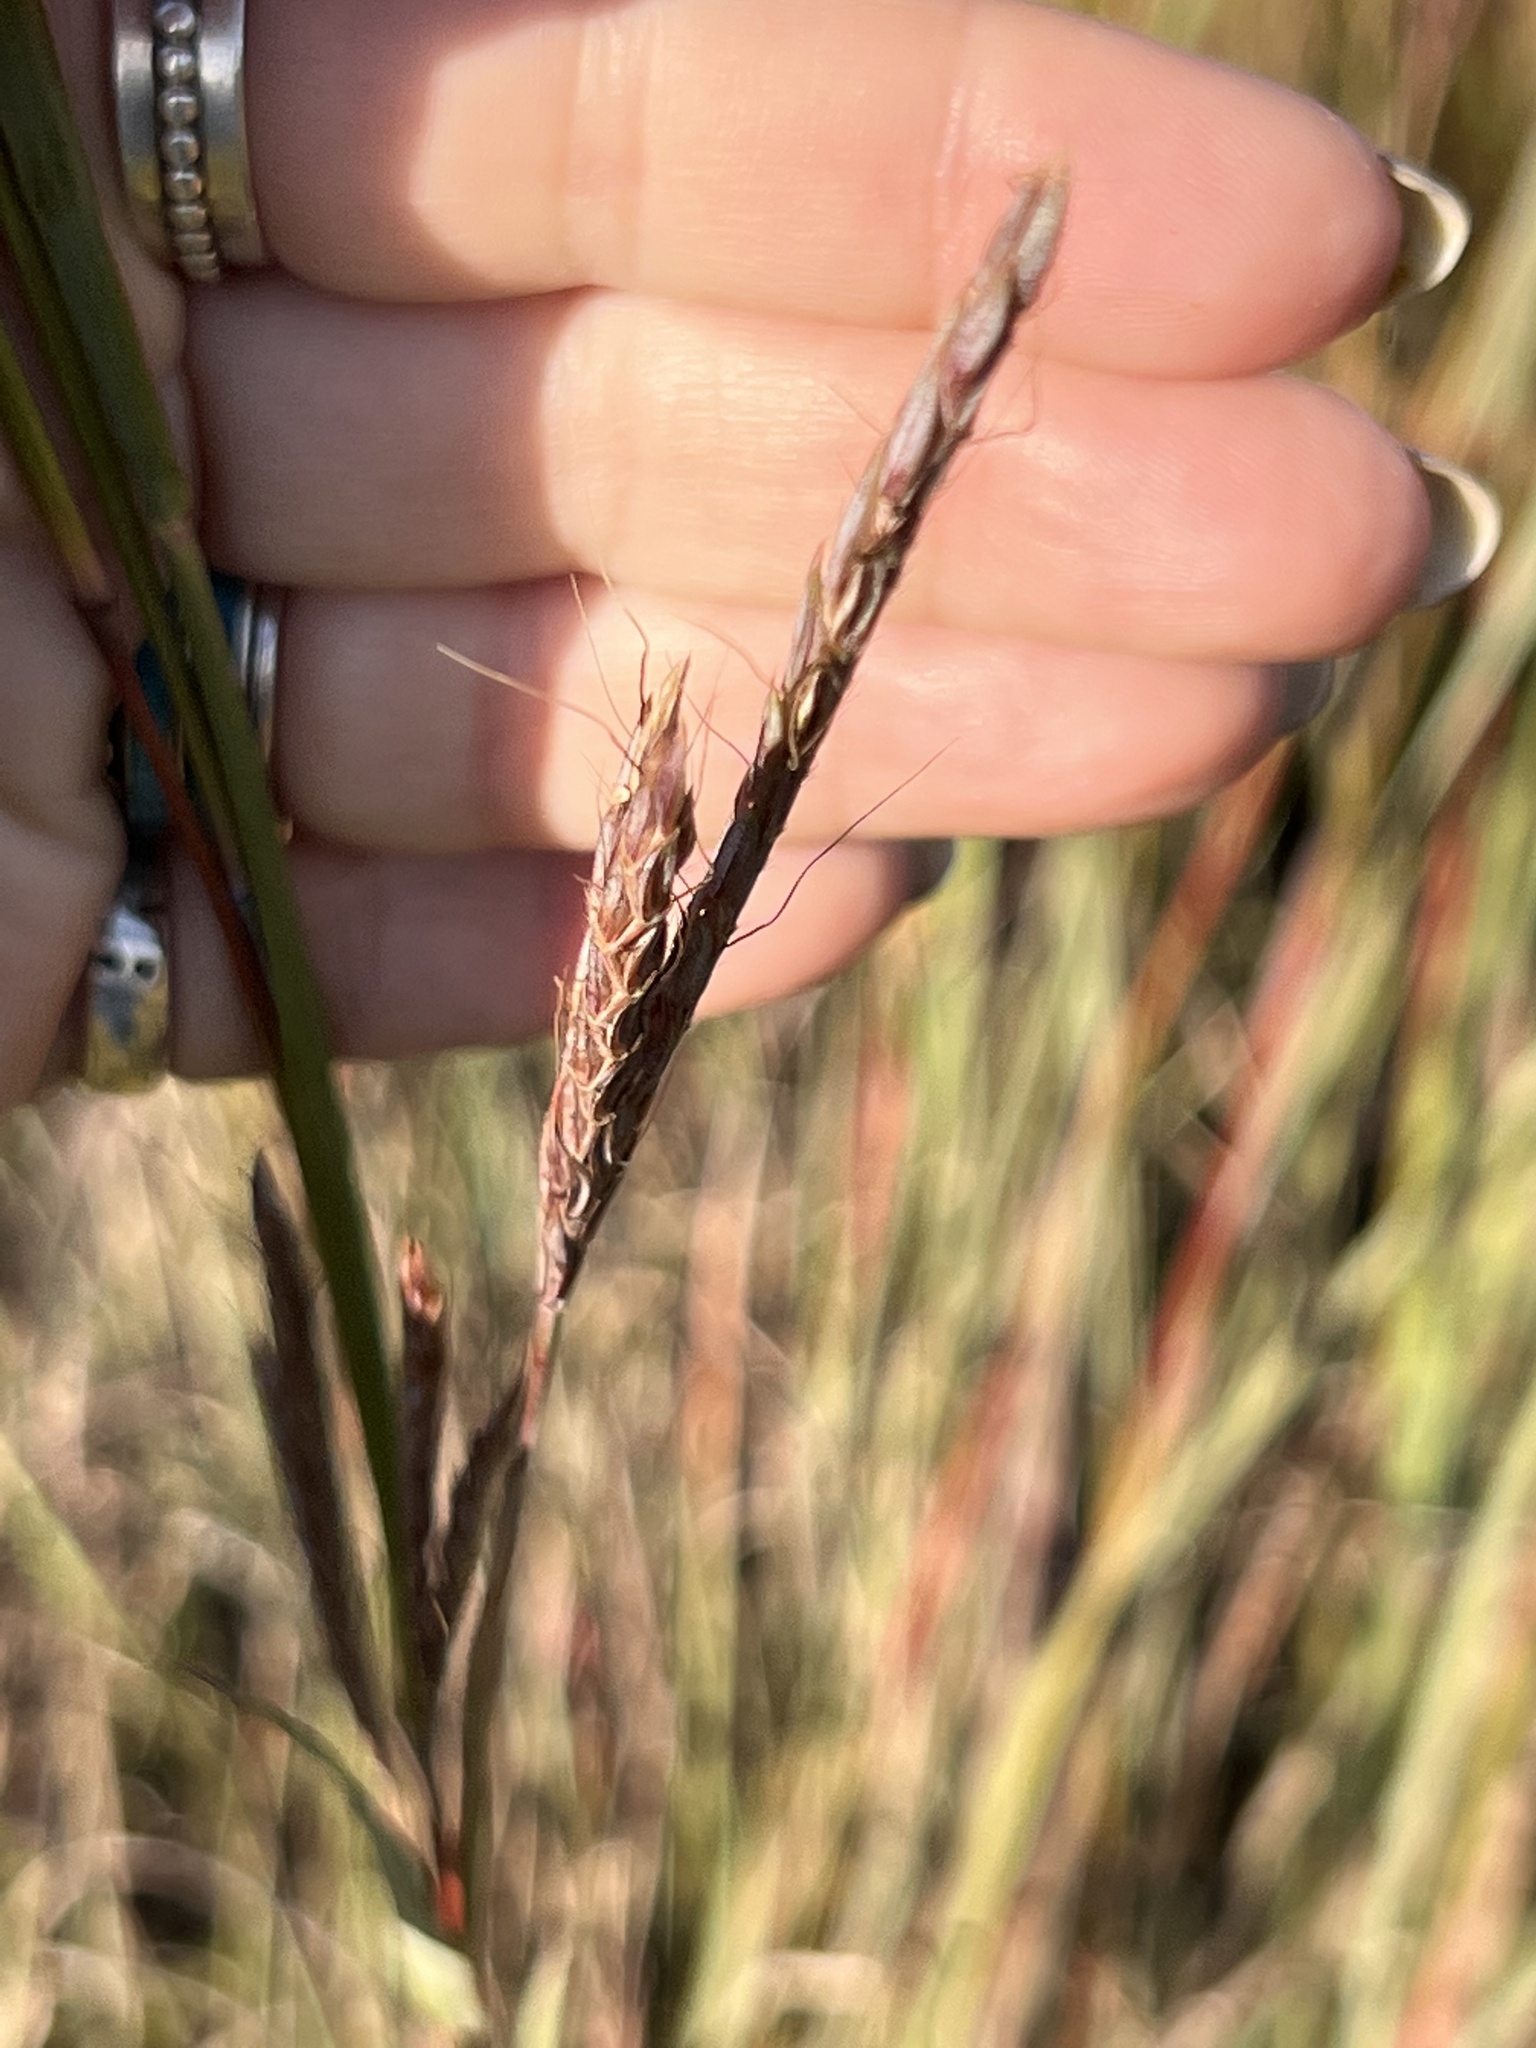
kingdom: Plantae
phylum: Tracheophyta
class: Liliopsida
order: Poales
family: Poaceae
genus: Andropogon
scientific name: Andropogon gerardi
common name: Big bluestem
